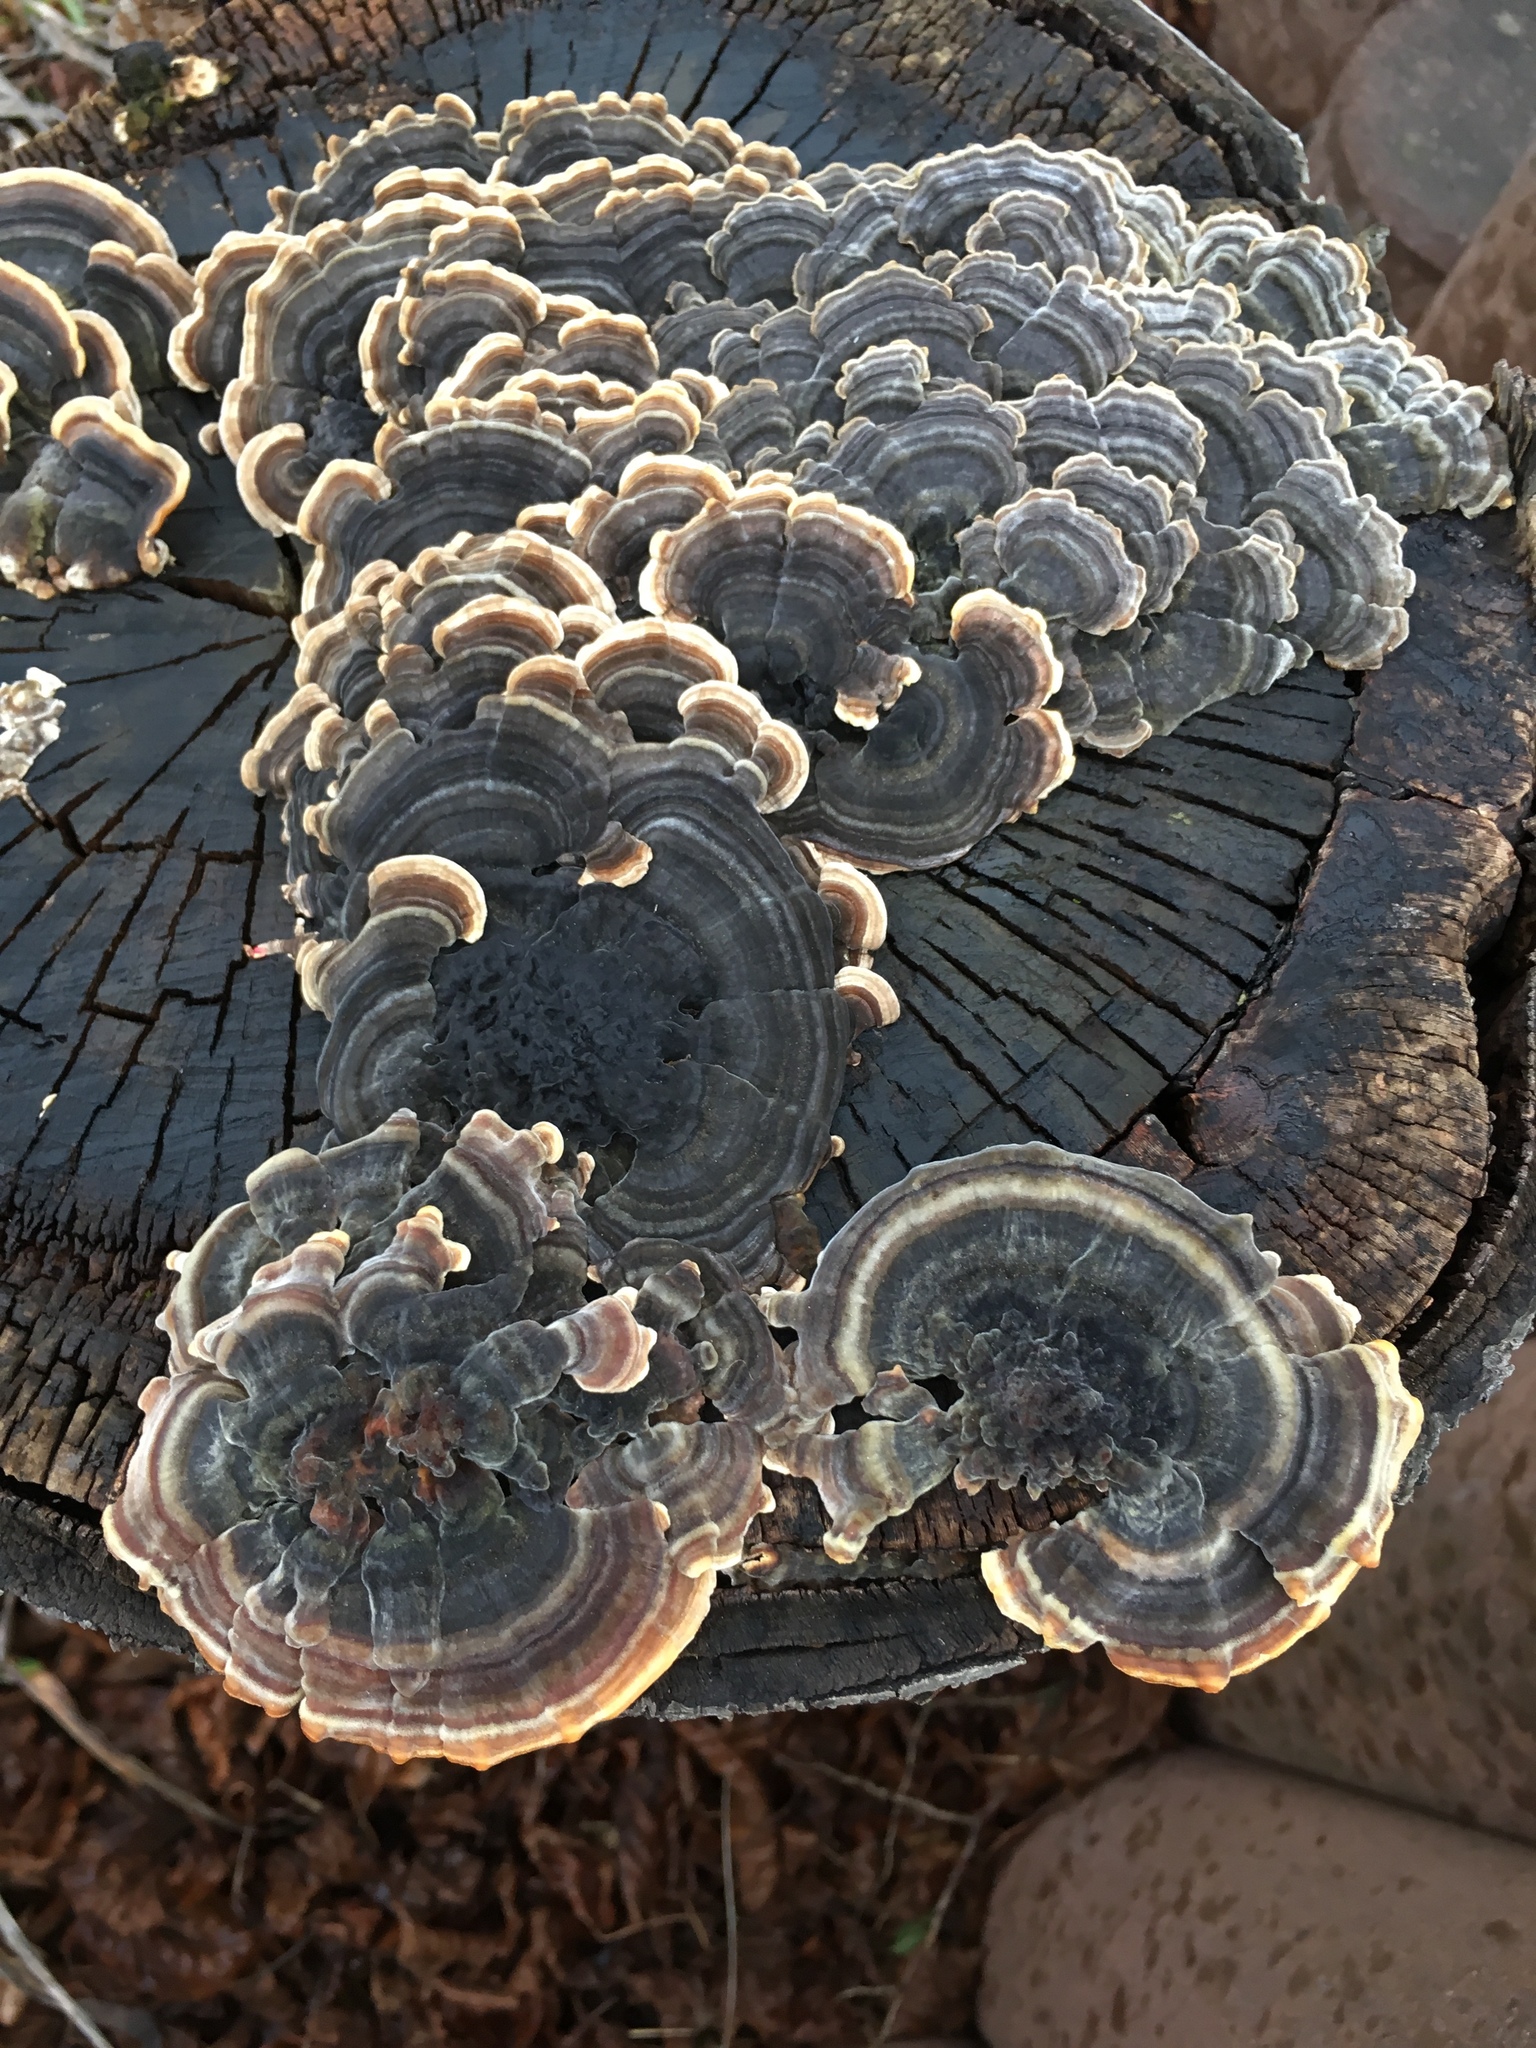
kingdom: Fungi
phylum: Basidiomycota
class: Agaricomycetes
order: Polyporales
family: Polyporaceae
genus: Trametes
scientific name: Trametes versicolor
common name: Turkeytail
